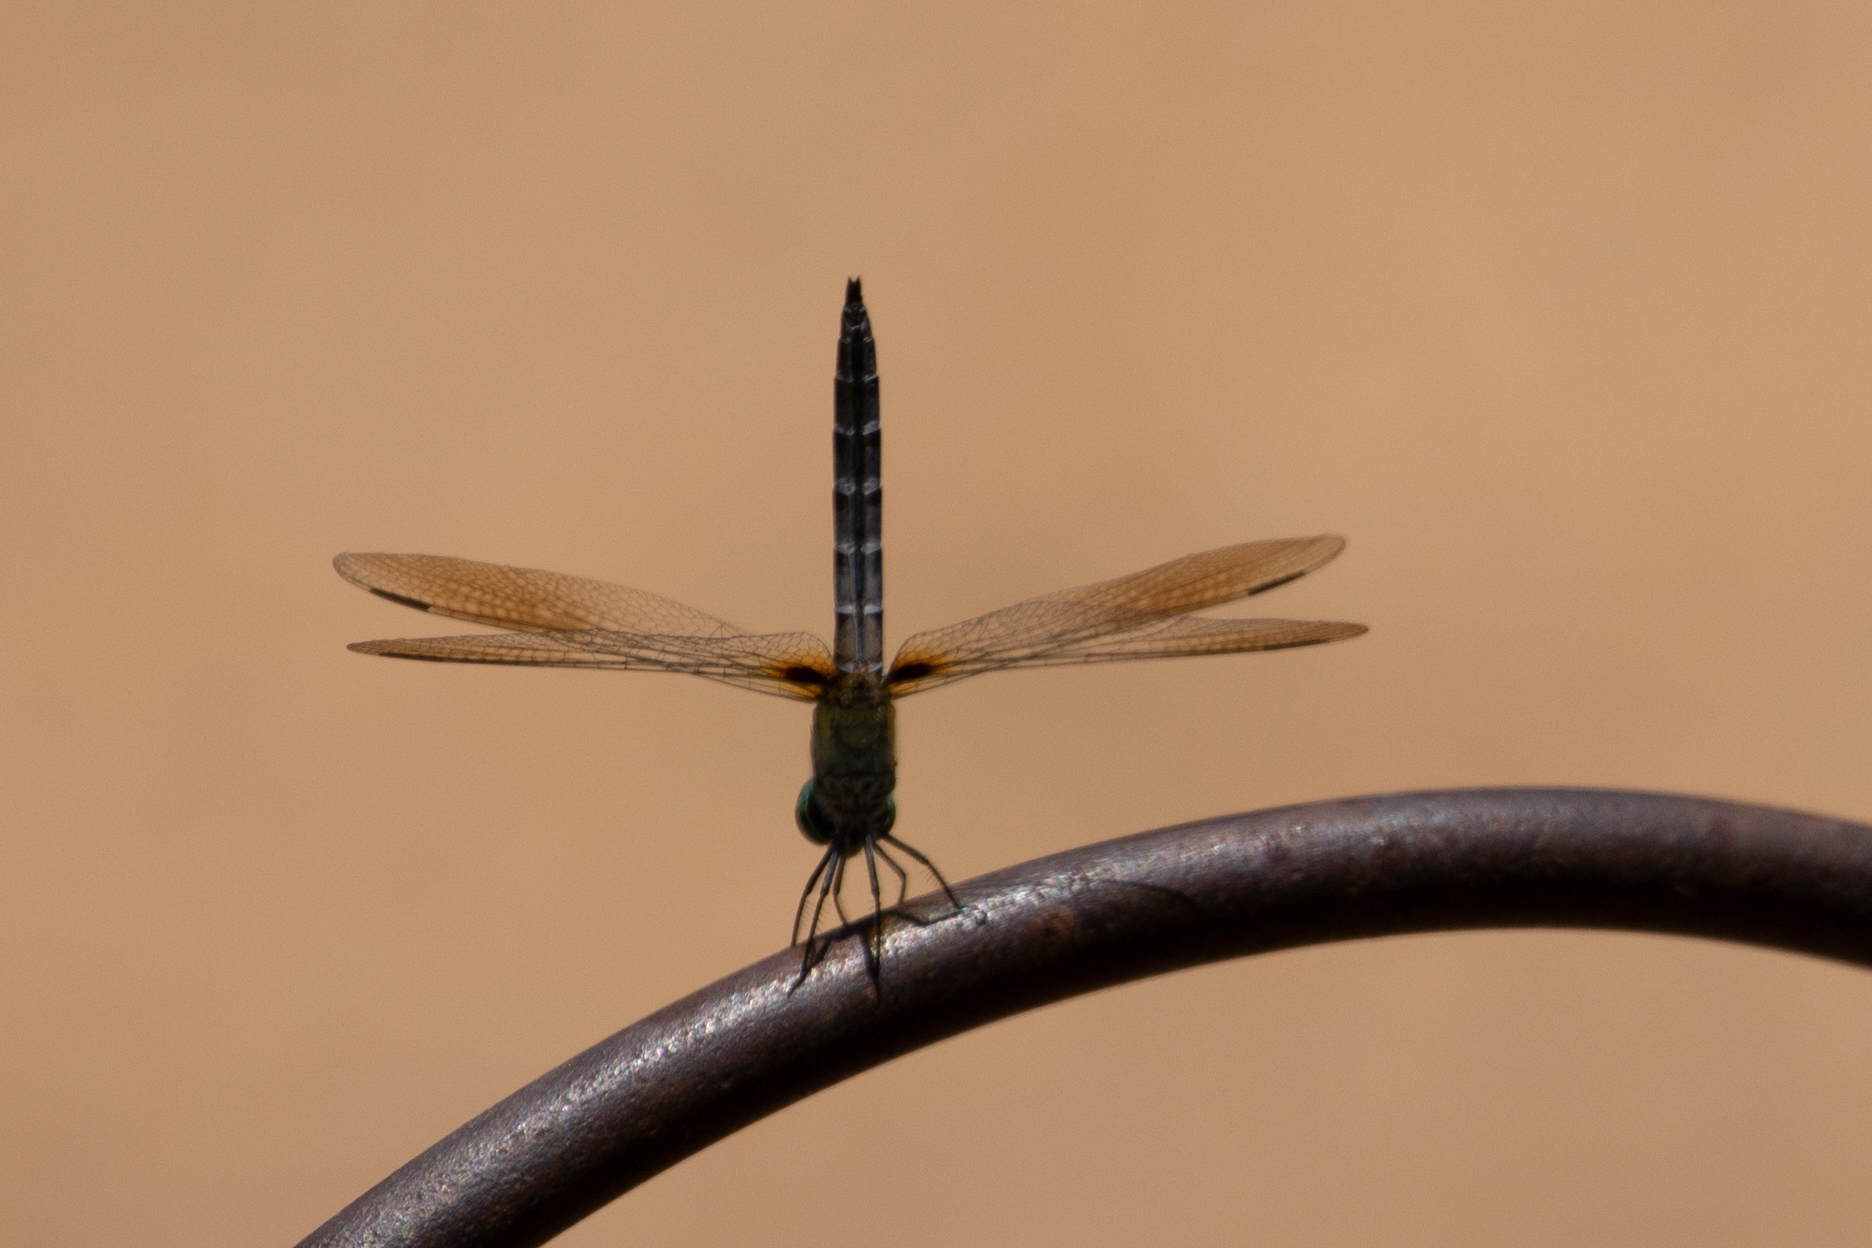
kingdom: Animalia
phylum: Arthropoda
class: Insecta
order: Odonata
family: Libellulidae
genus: Pachydiplax
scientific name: Pachydiplax longipennis
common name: Blue dasher
